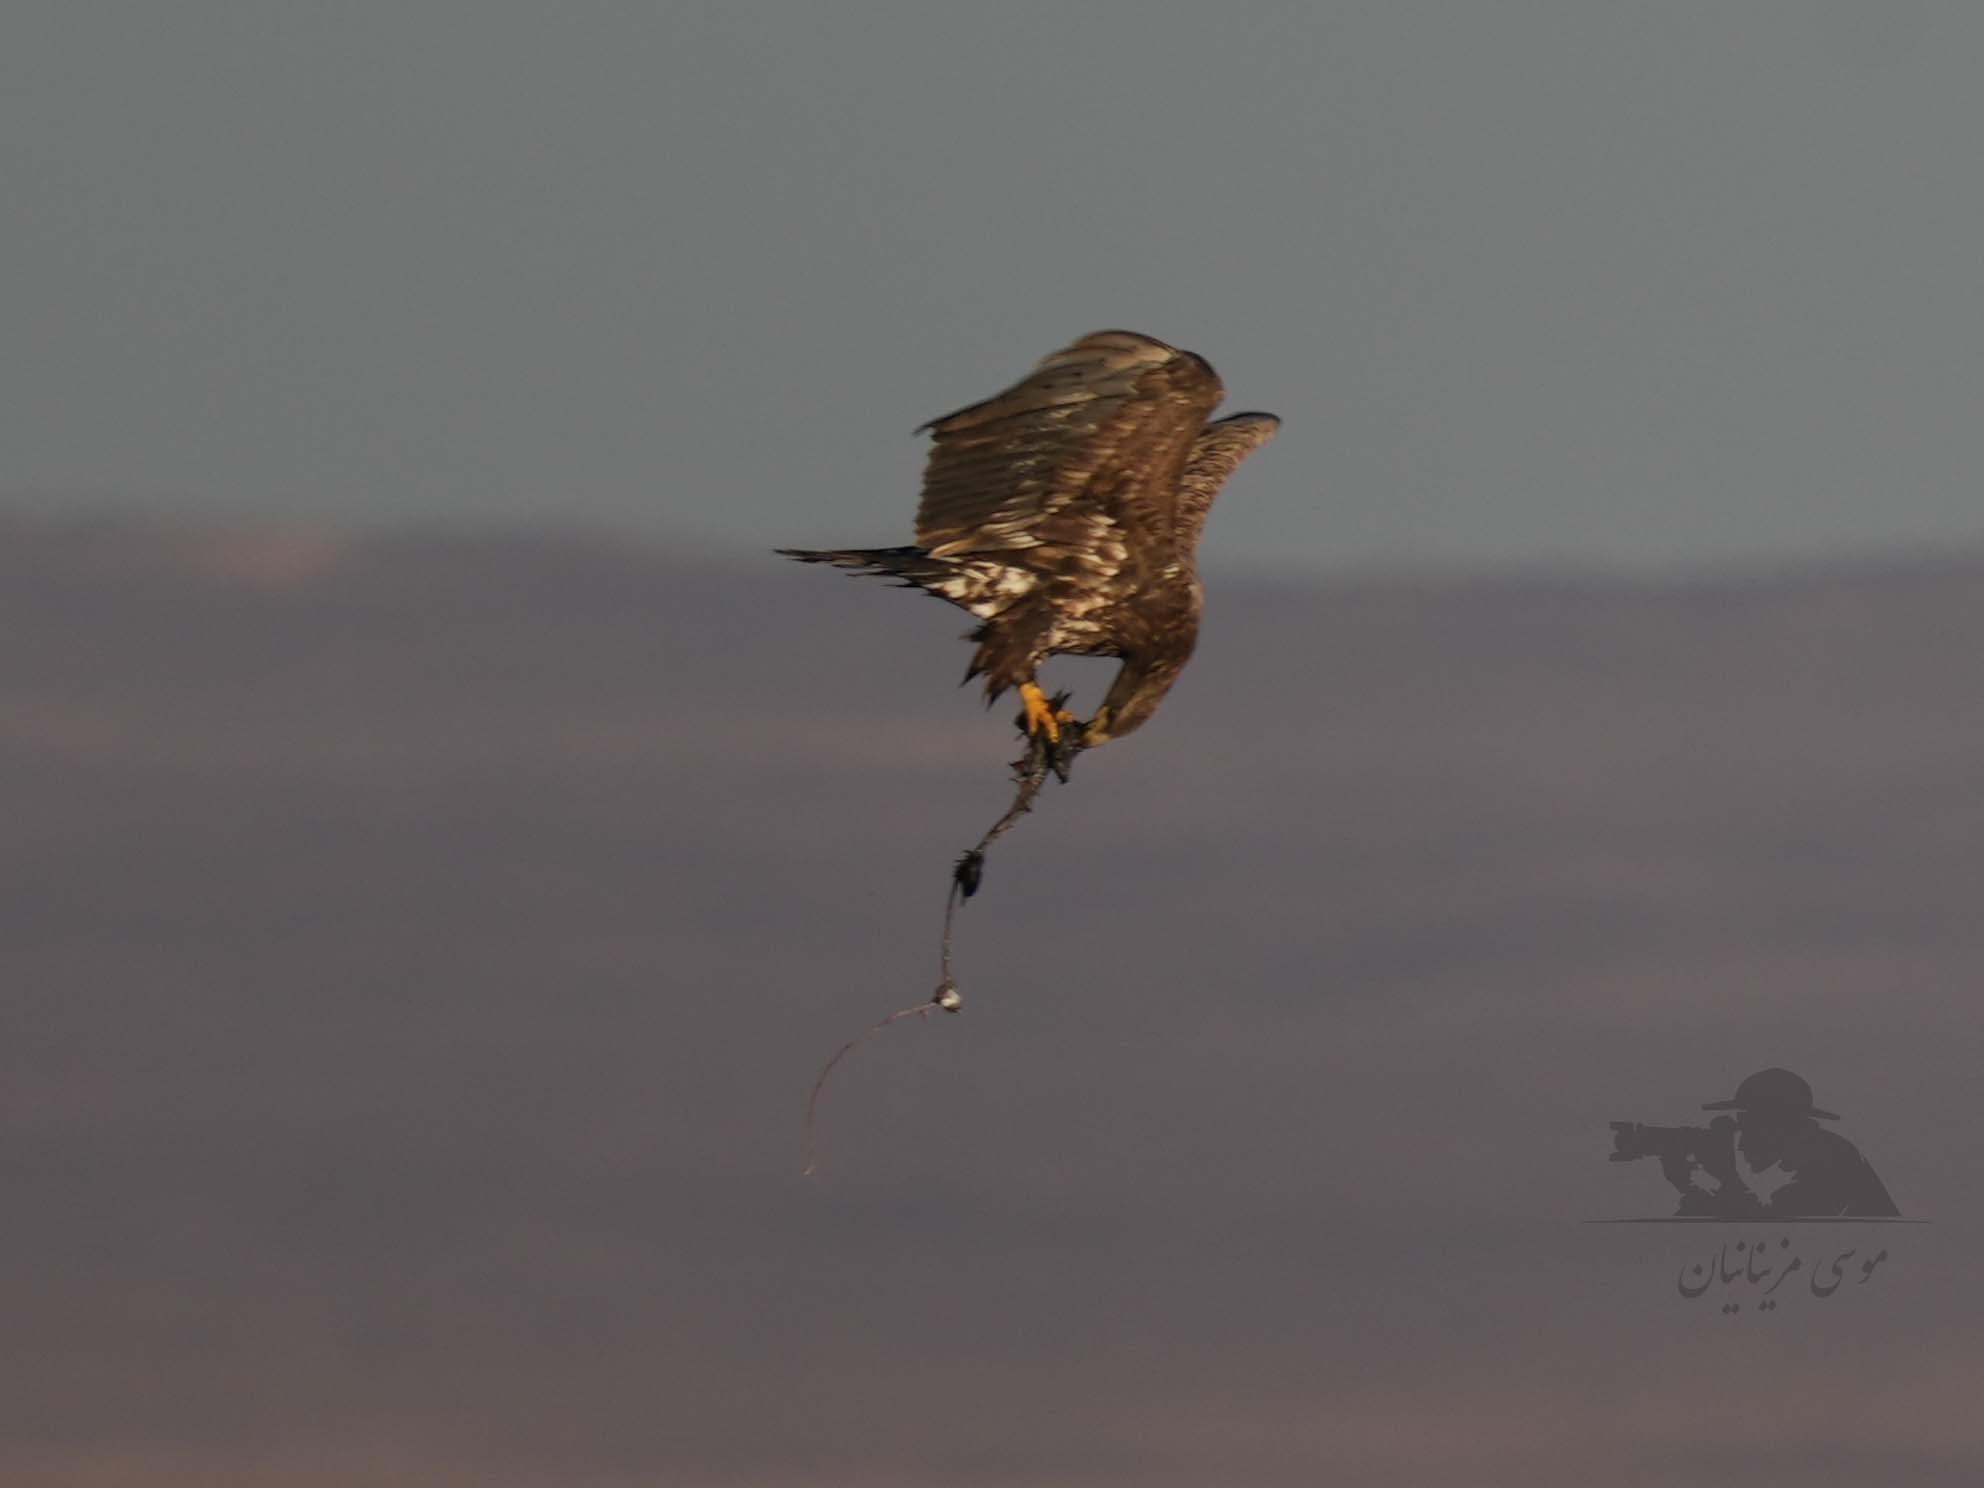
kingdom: Animalia
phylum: Chordata
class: Aves
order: Accipitriformes
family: Accipitridae
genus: Haliaeetus
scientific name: Haliaeetus albicilla
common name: White-tailed eagle
